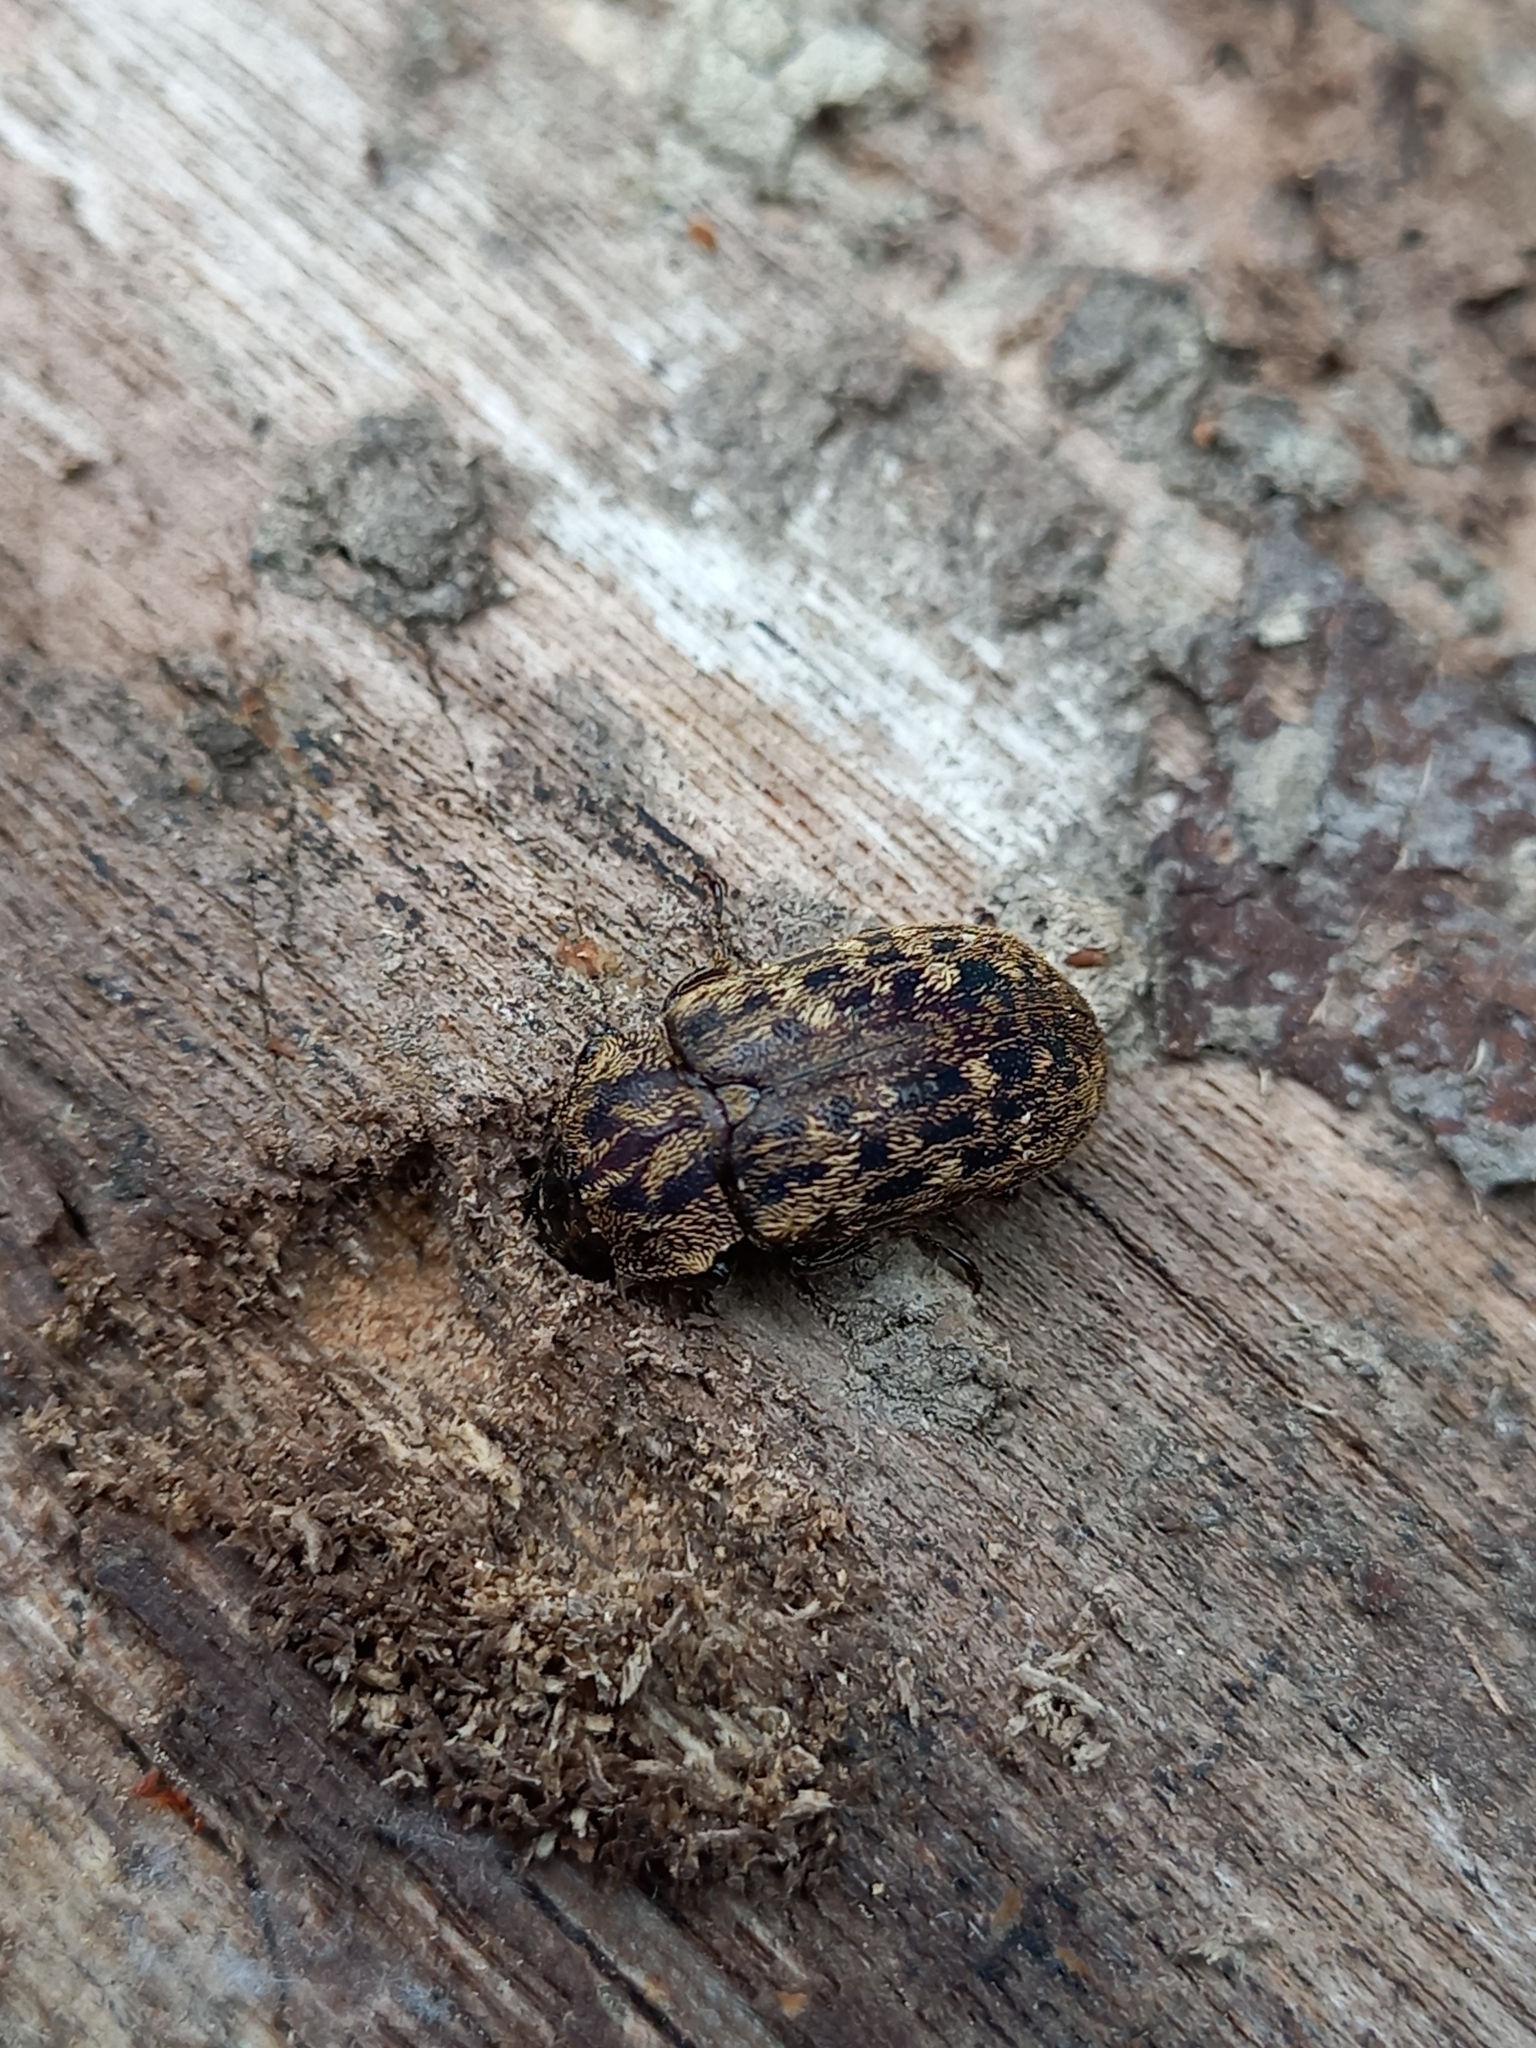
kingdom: Animalia
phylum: Arthropoda
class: Insecta
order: Coleoptera
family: Lucanidae
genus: Mitophyllus
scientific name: Mitophyllus irroratus
